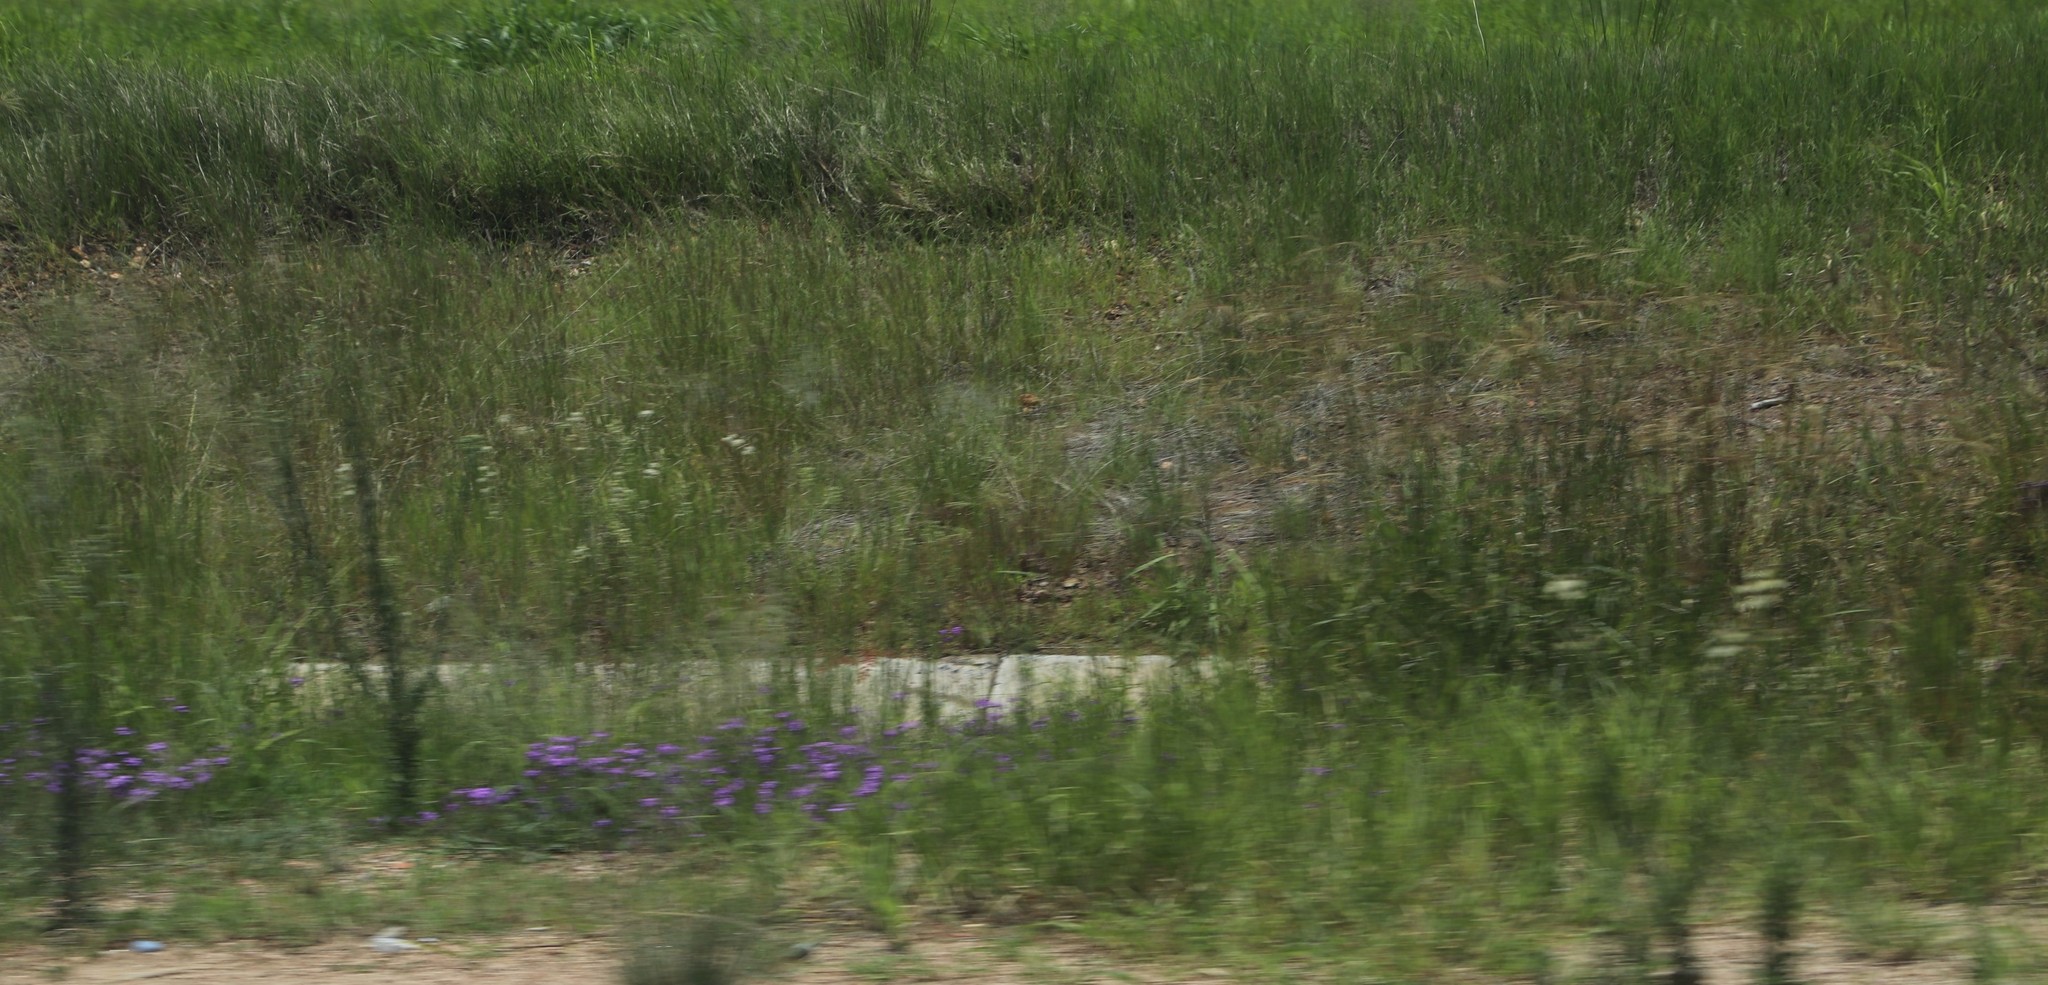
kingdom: Plantae
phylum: Tracheophyta
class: Magnoliopsida
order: Lamiales
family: Verbenaceae
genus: Verbena
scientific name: Verbena aristigera
